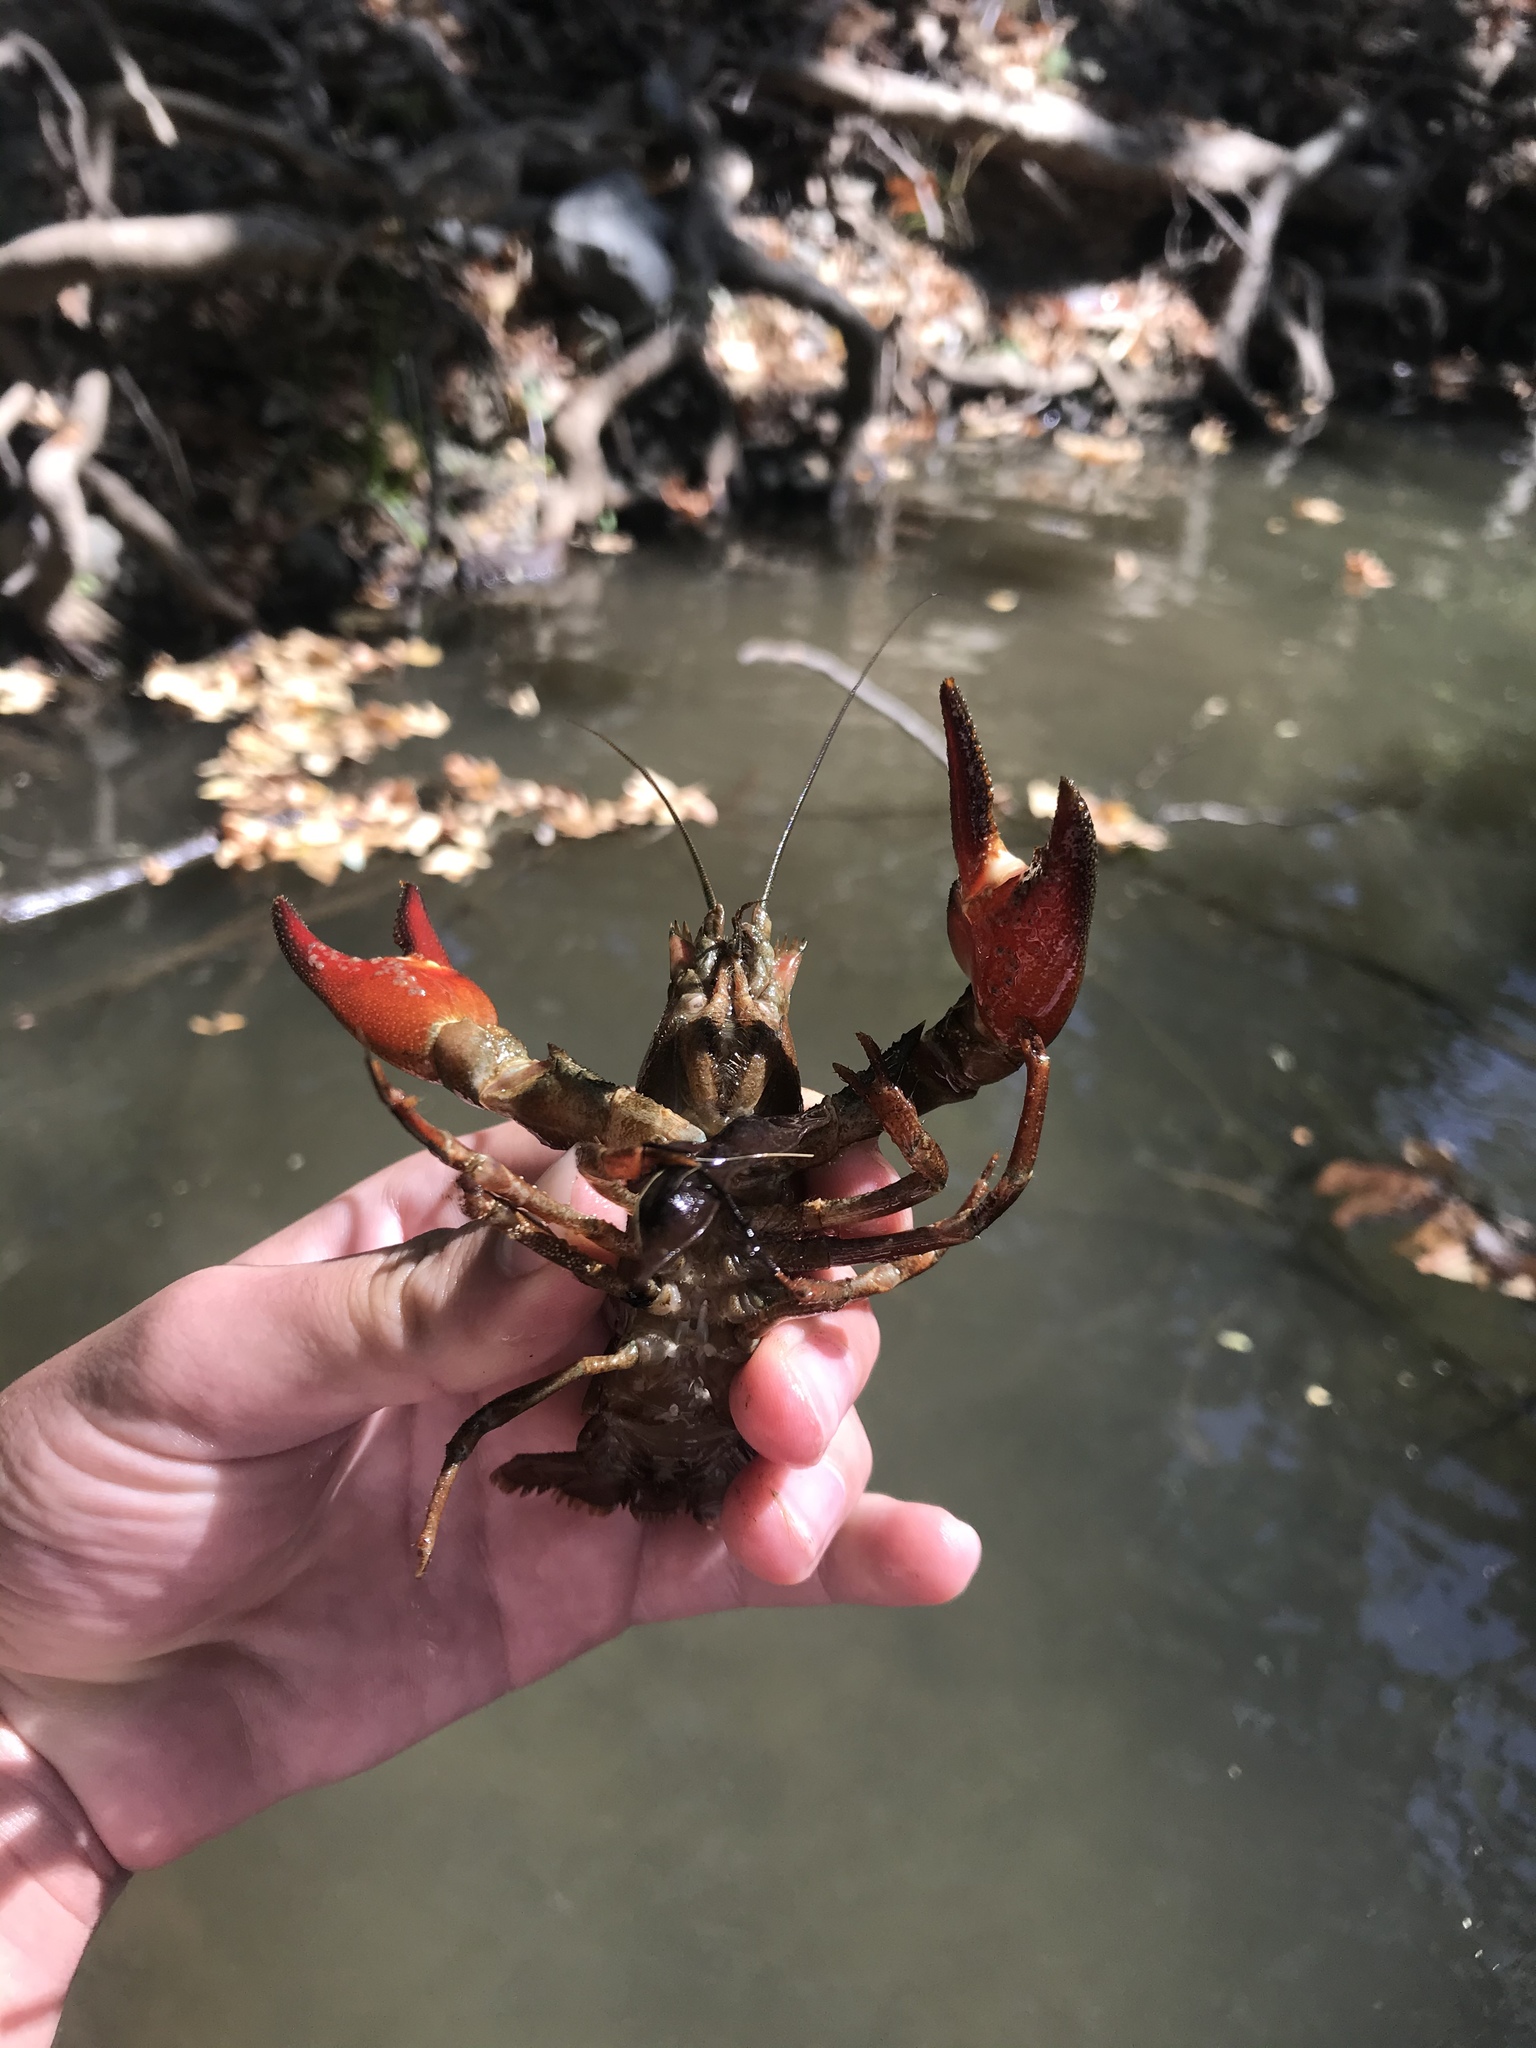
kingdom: Animalia
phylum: Arthropoda
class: Malacostraca
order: Decapoda
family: Astacidae
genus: Pacifastacus
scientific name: Pacifastacus leniusculus
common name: Signal crayfish
